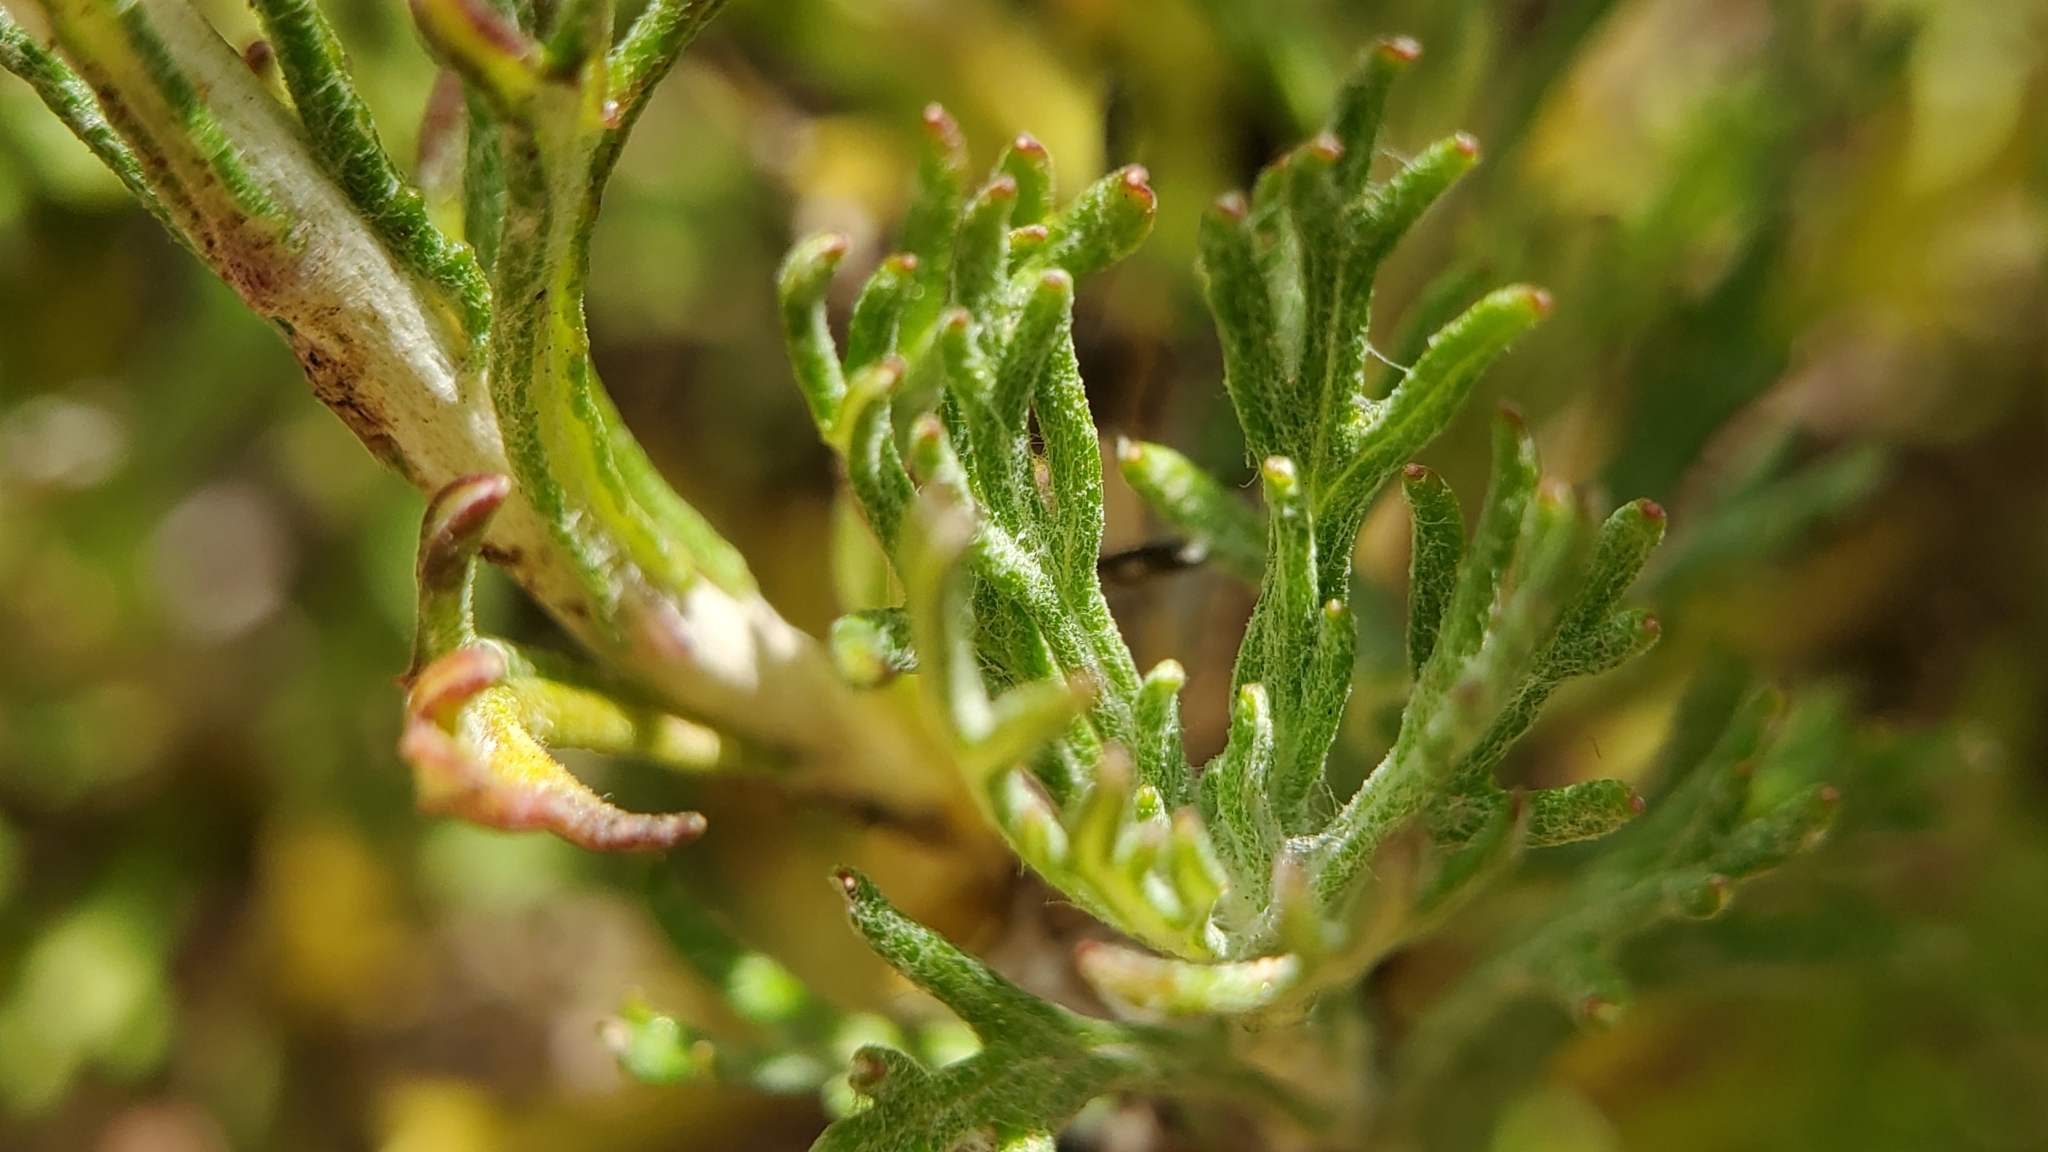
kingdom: Plantae
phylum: Tracheophyta
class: Magnoliopsida
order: Asterales
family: Asteraceae
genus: Eriophyllum
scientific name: Eriophyllum confertiflorum
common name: Golden-yarrow
